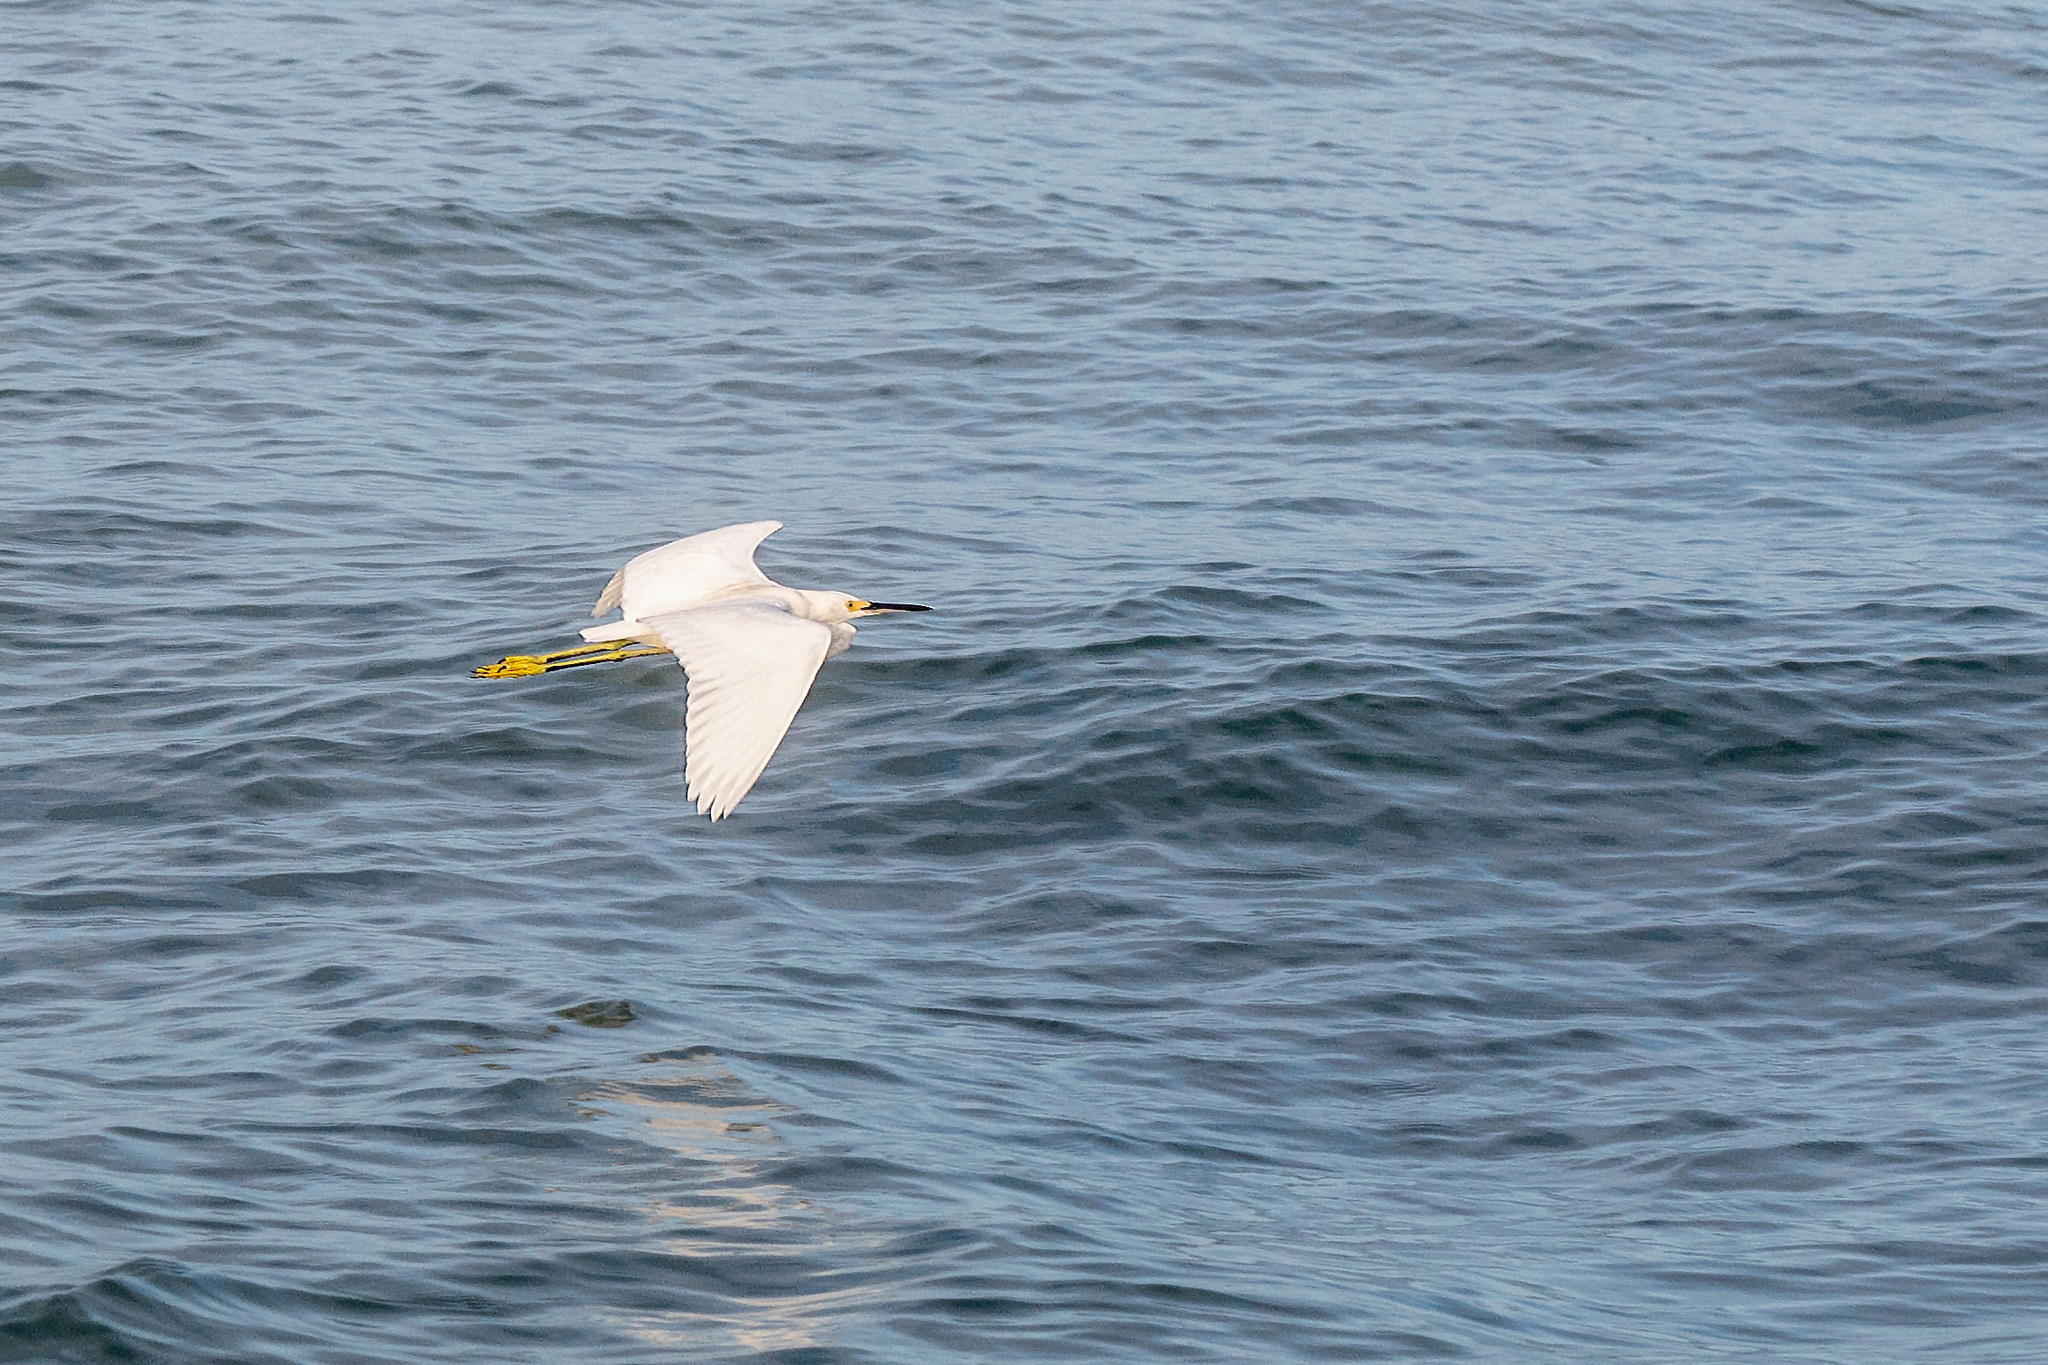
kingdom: Animalia
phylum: Chordata
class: Aves
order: Pelecaniformes
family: Ardeidae
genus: Egretta
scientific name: Egretta thula
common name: Snowy egret
